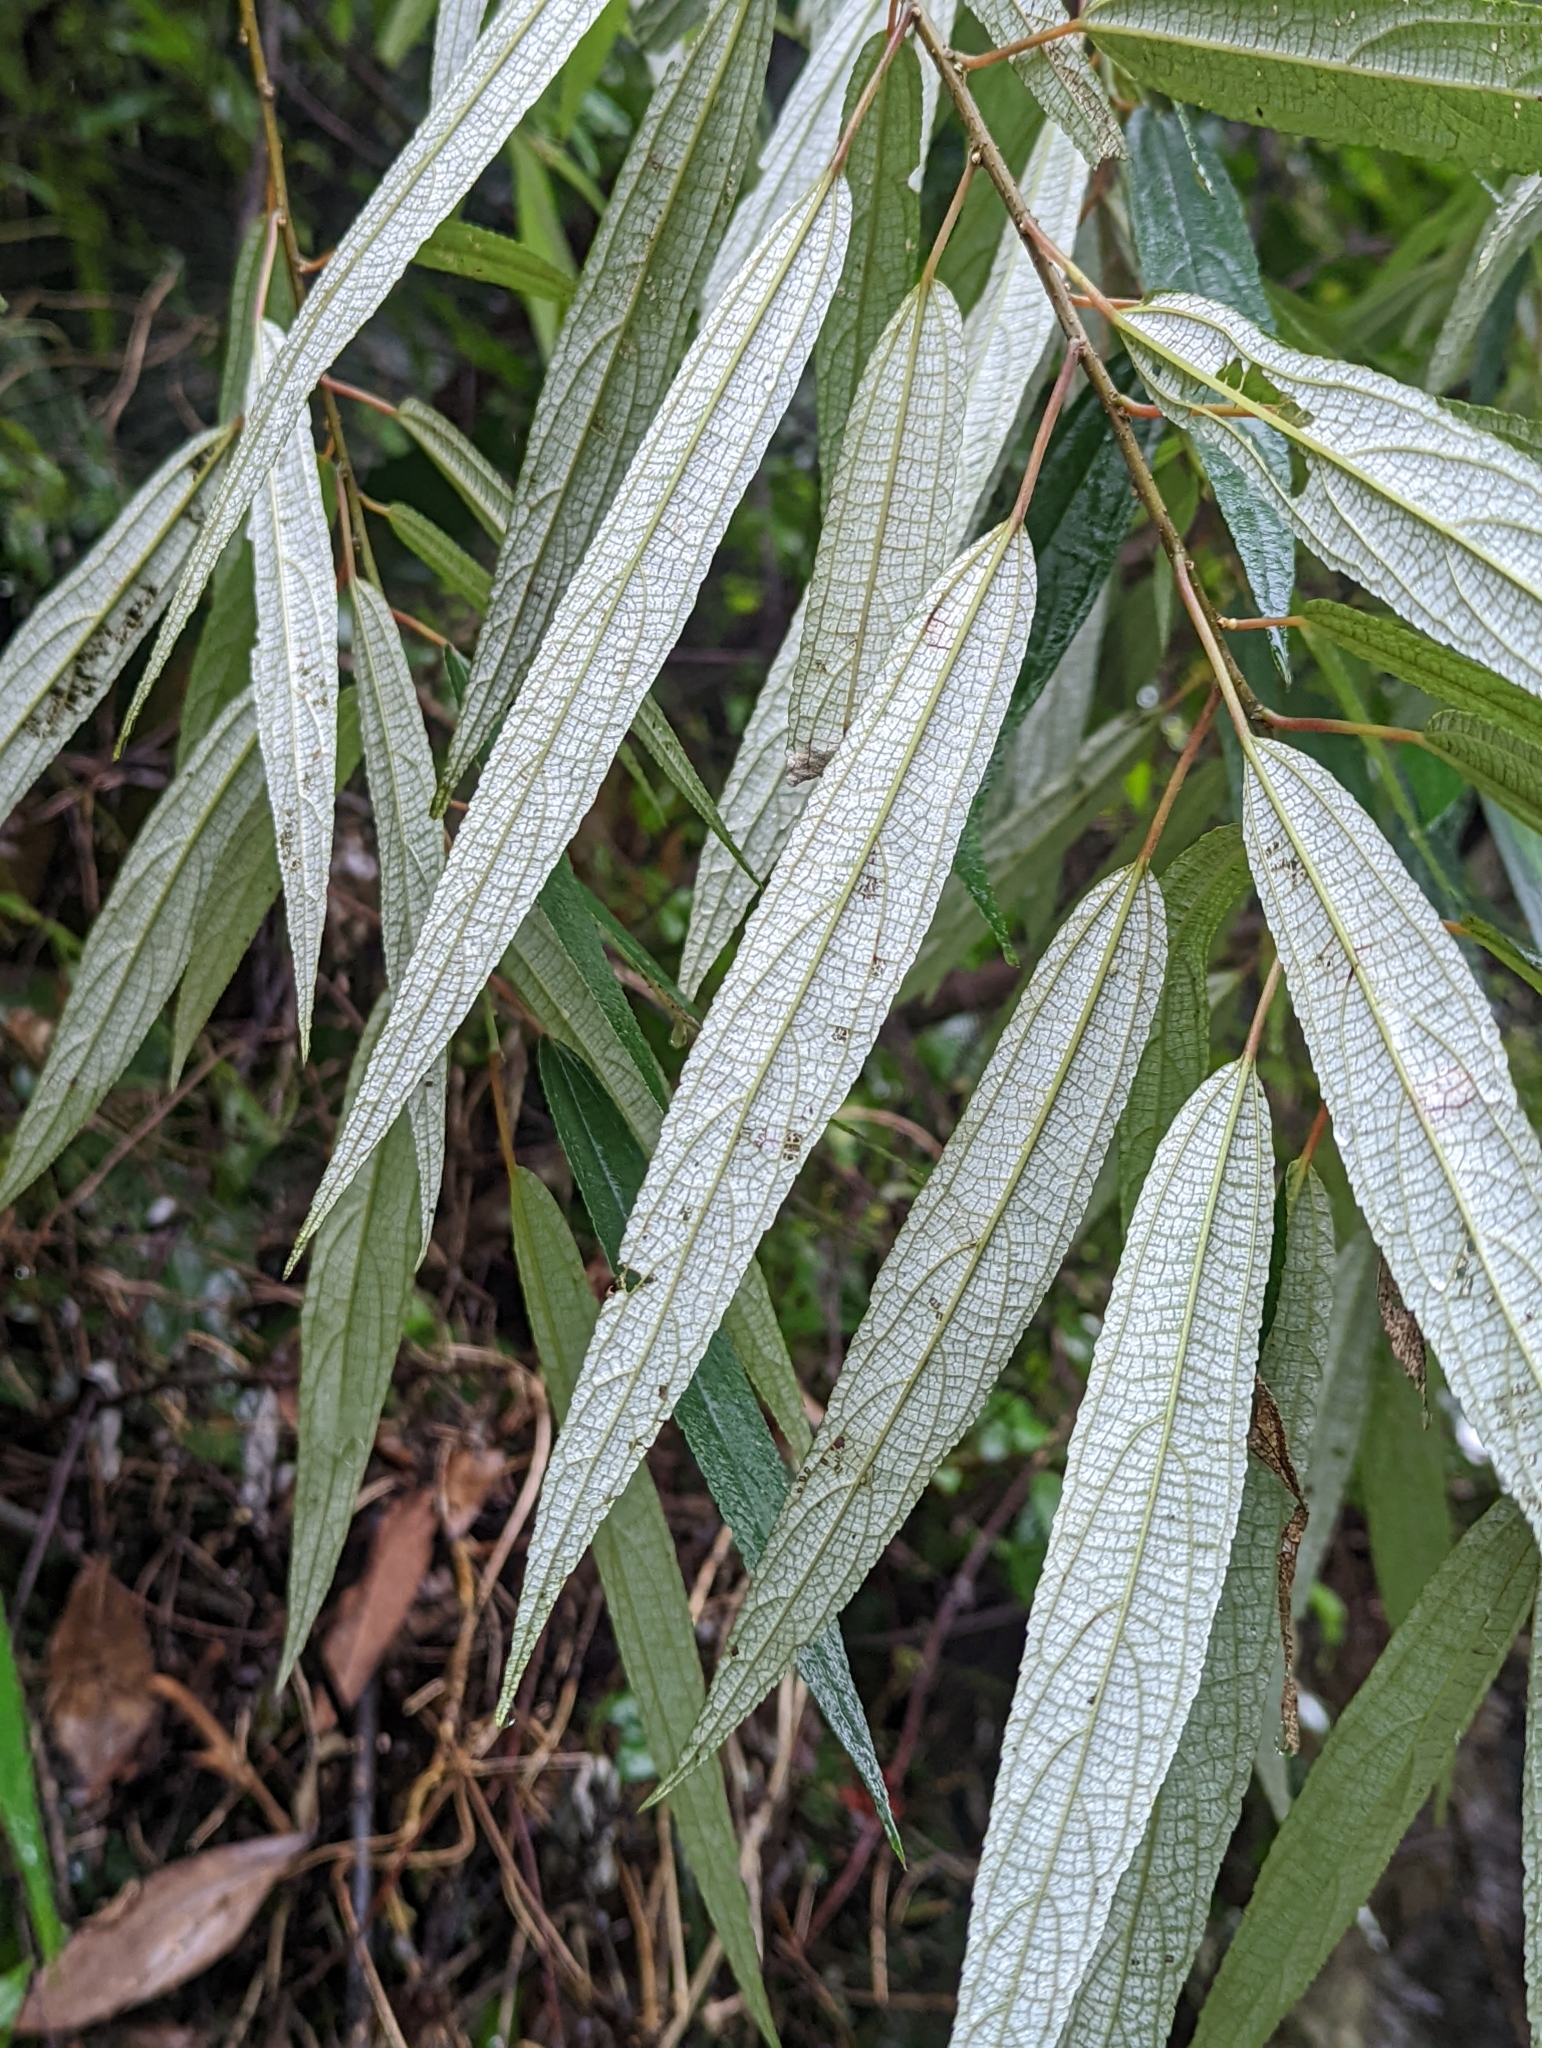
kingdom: Plantae
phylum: Tracheophyta
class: Magnoliopsida
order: Rosales
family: Urticaceae
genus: Debregeasia
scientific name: Debregeasia orientalis
